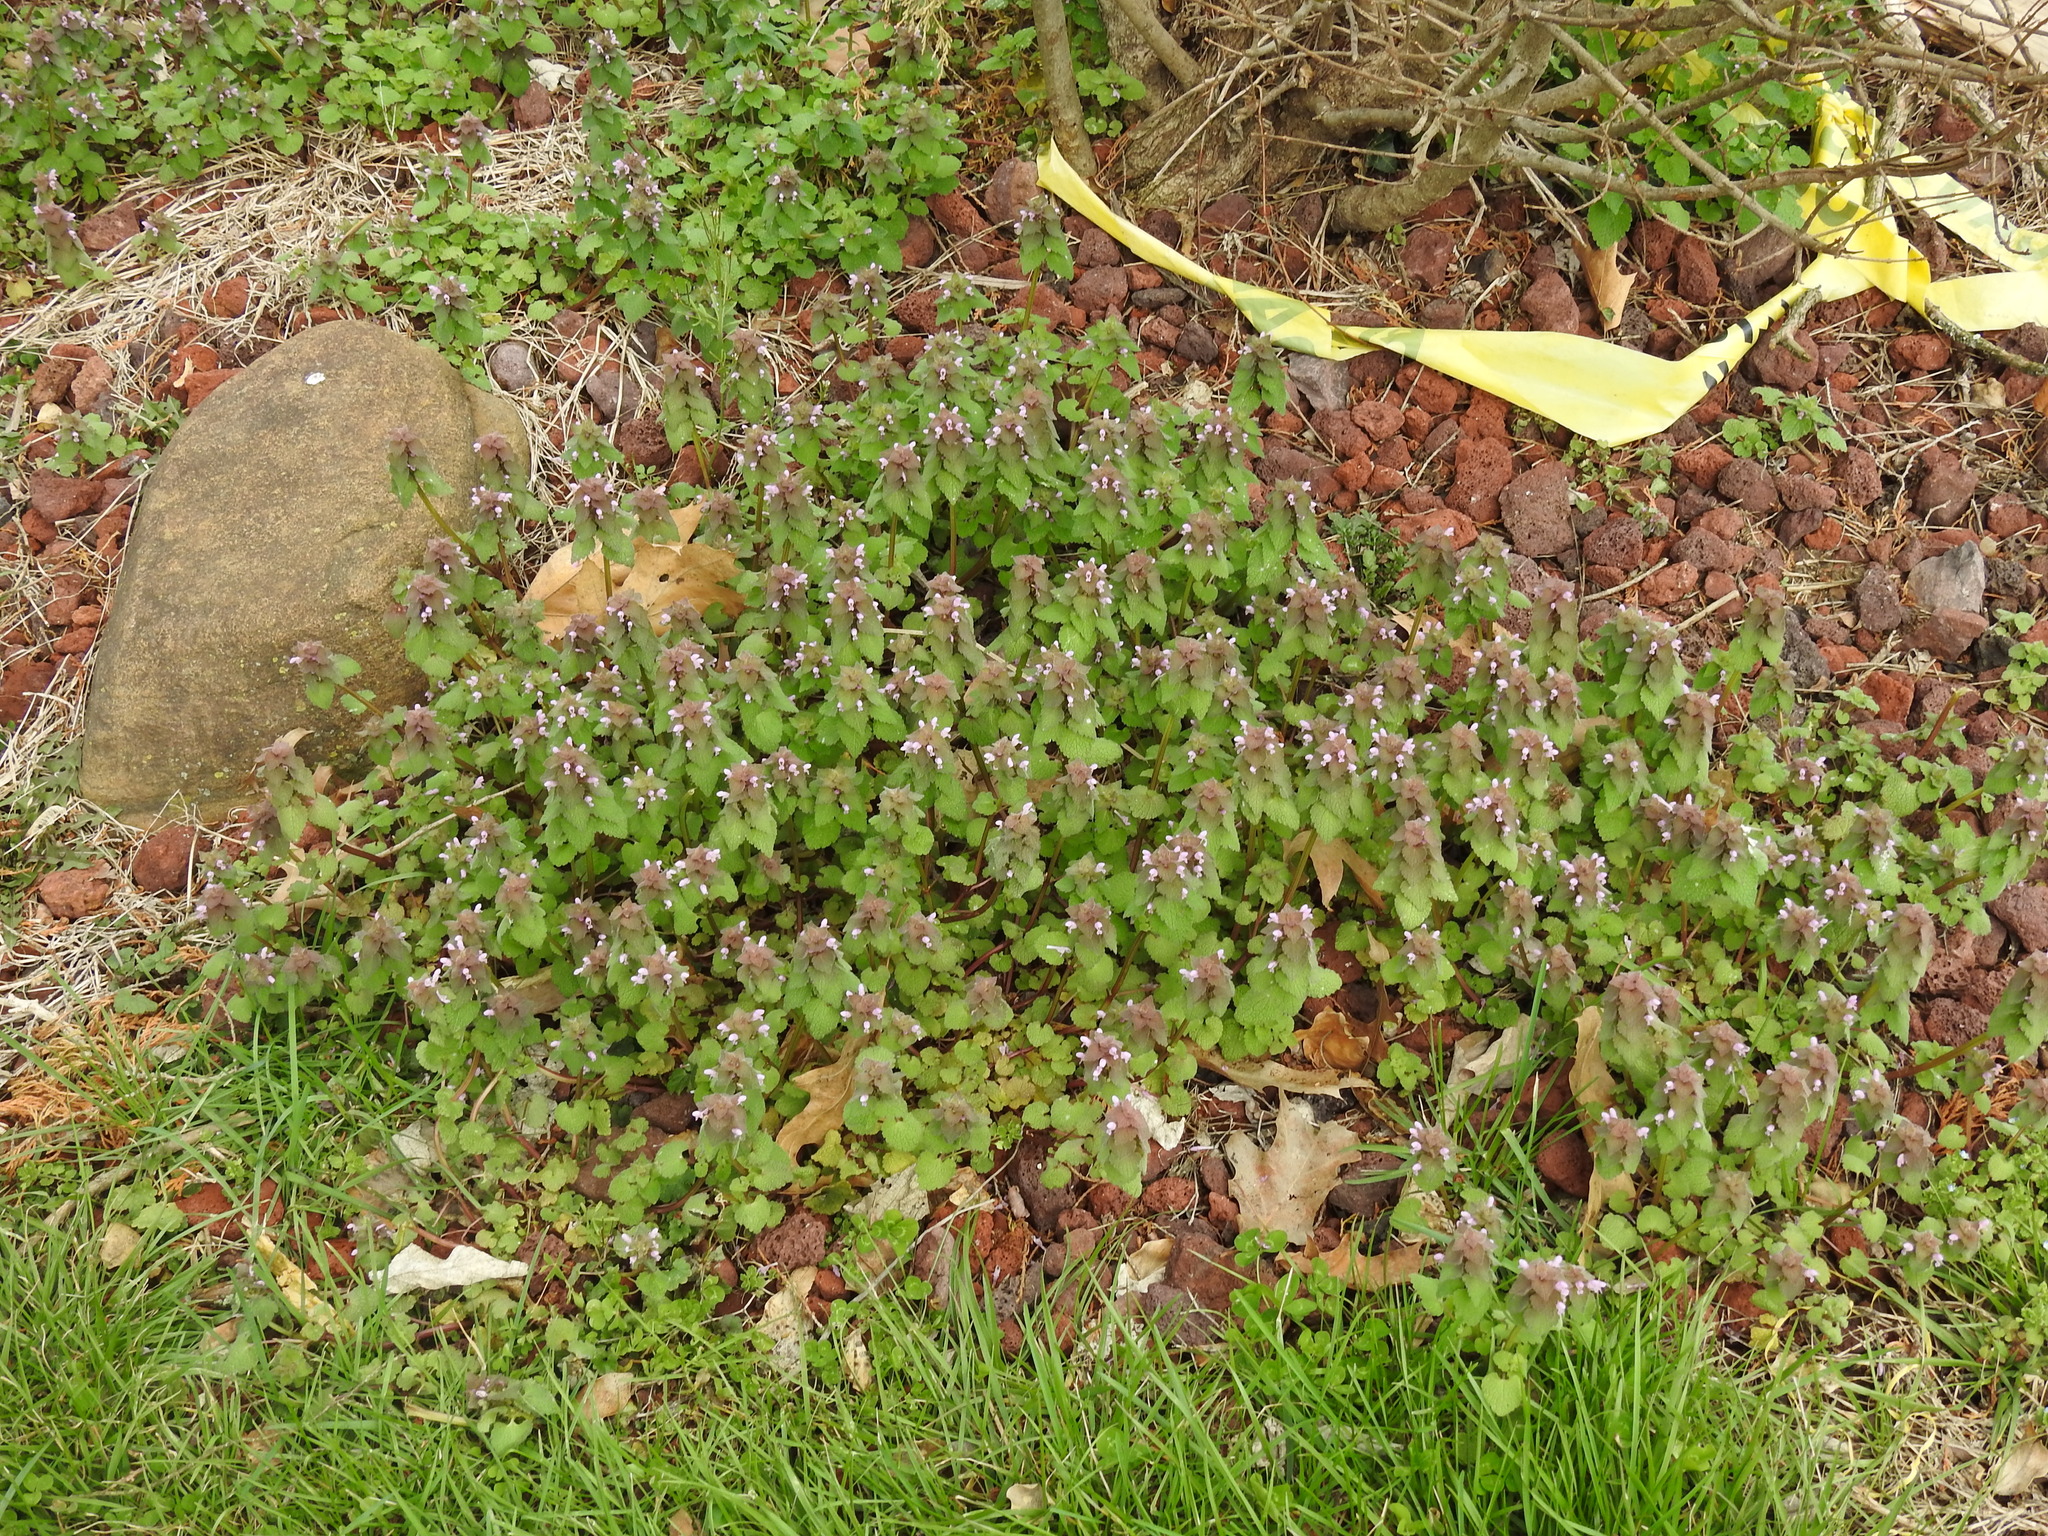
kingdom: Plantae
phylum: Tracheophyta
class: Magnoliopsida
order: Lamiales
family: Lamiaceae
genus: Lamium
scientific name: Lamium purpureum
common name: Red dead-nettle
